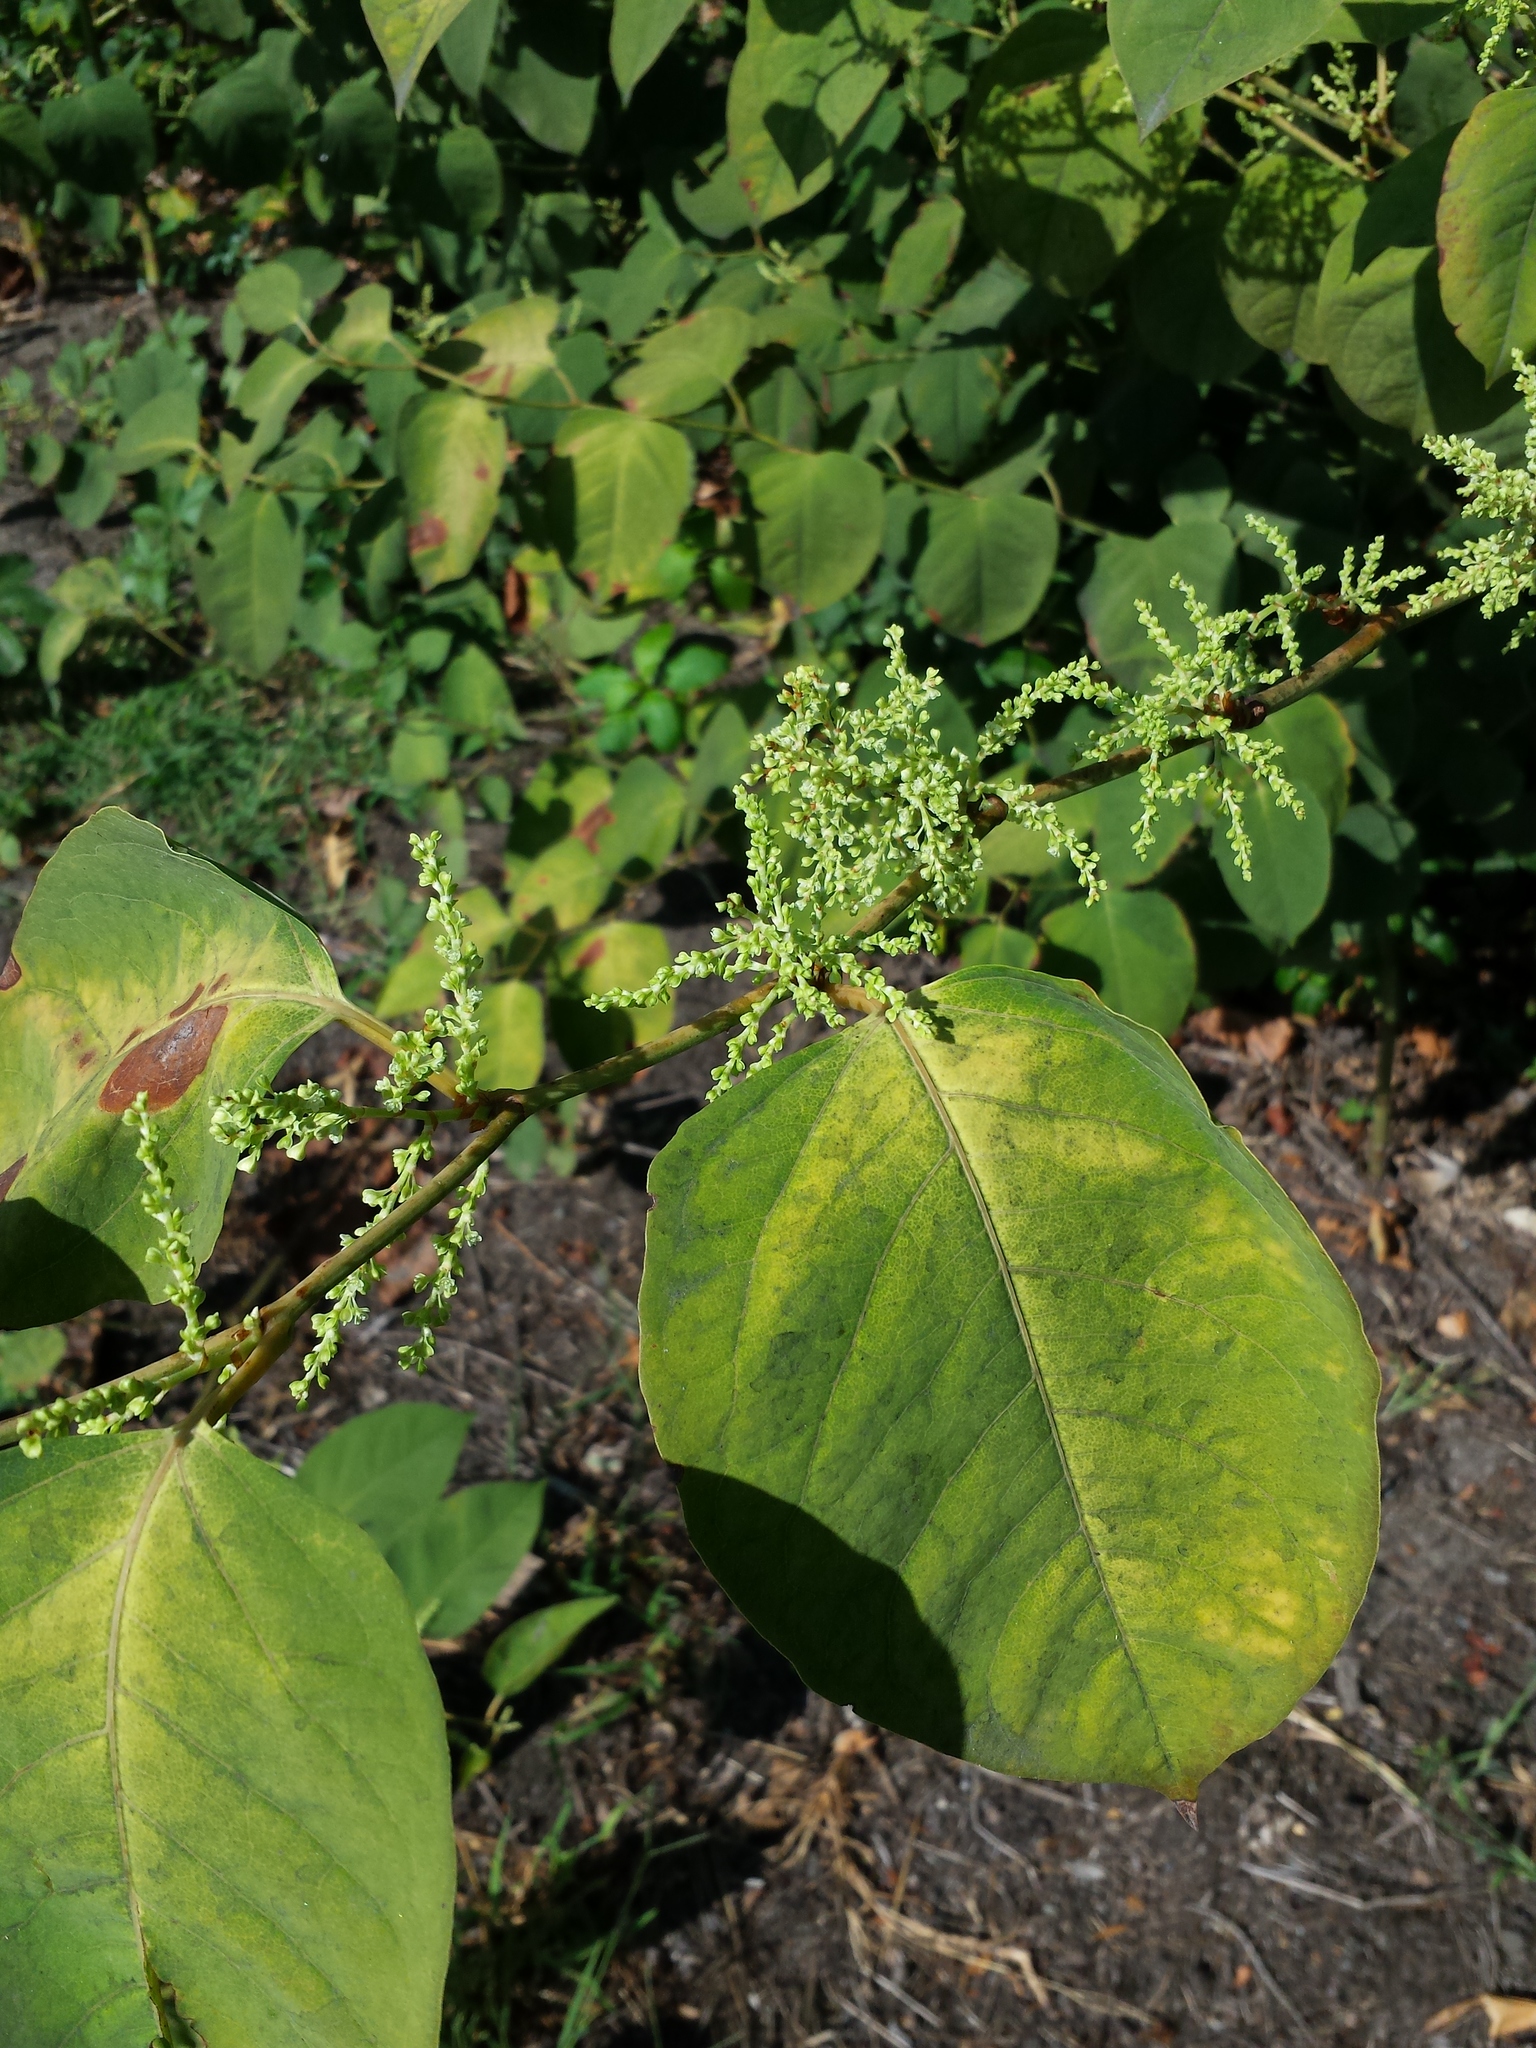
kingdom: Plantae
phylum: Tracheophyta
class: Magnoliopsida
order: Caryophyllales
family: Polygonaceae
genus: Reynoutria
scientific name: Reynoutria japonica
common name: Japanese knotweed
